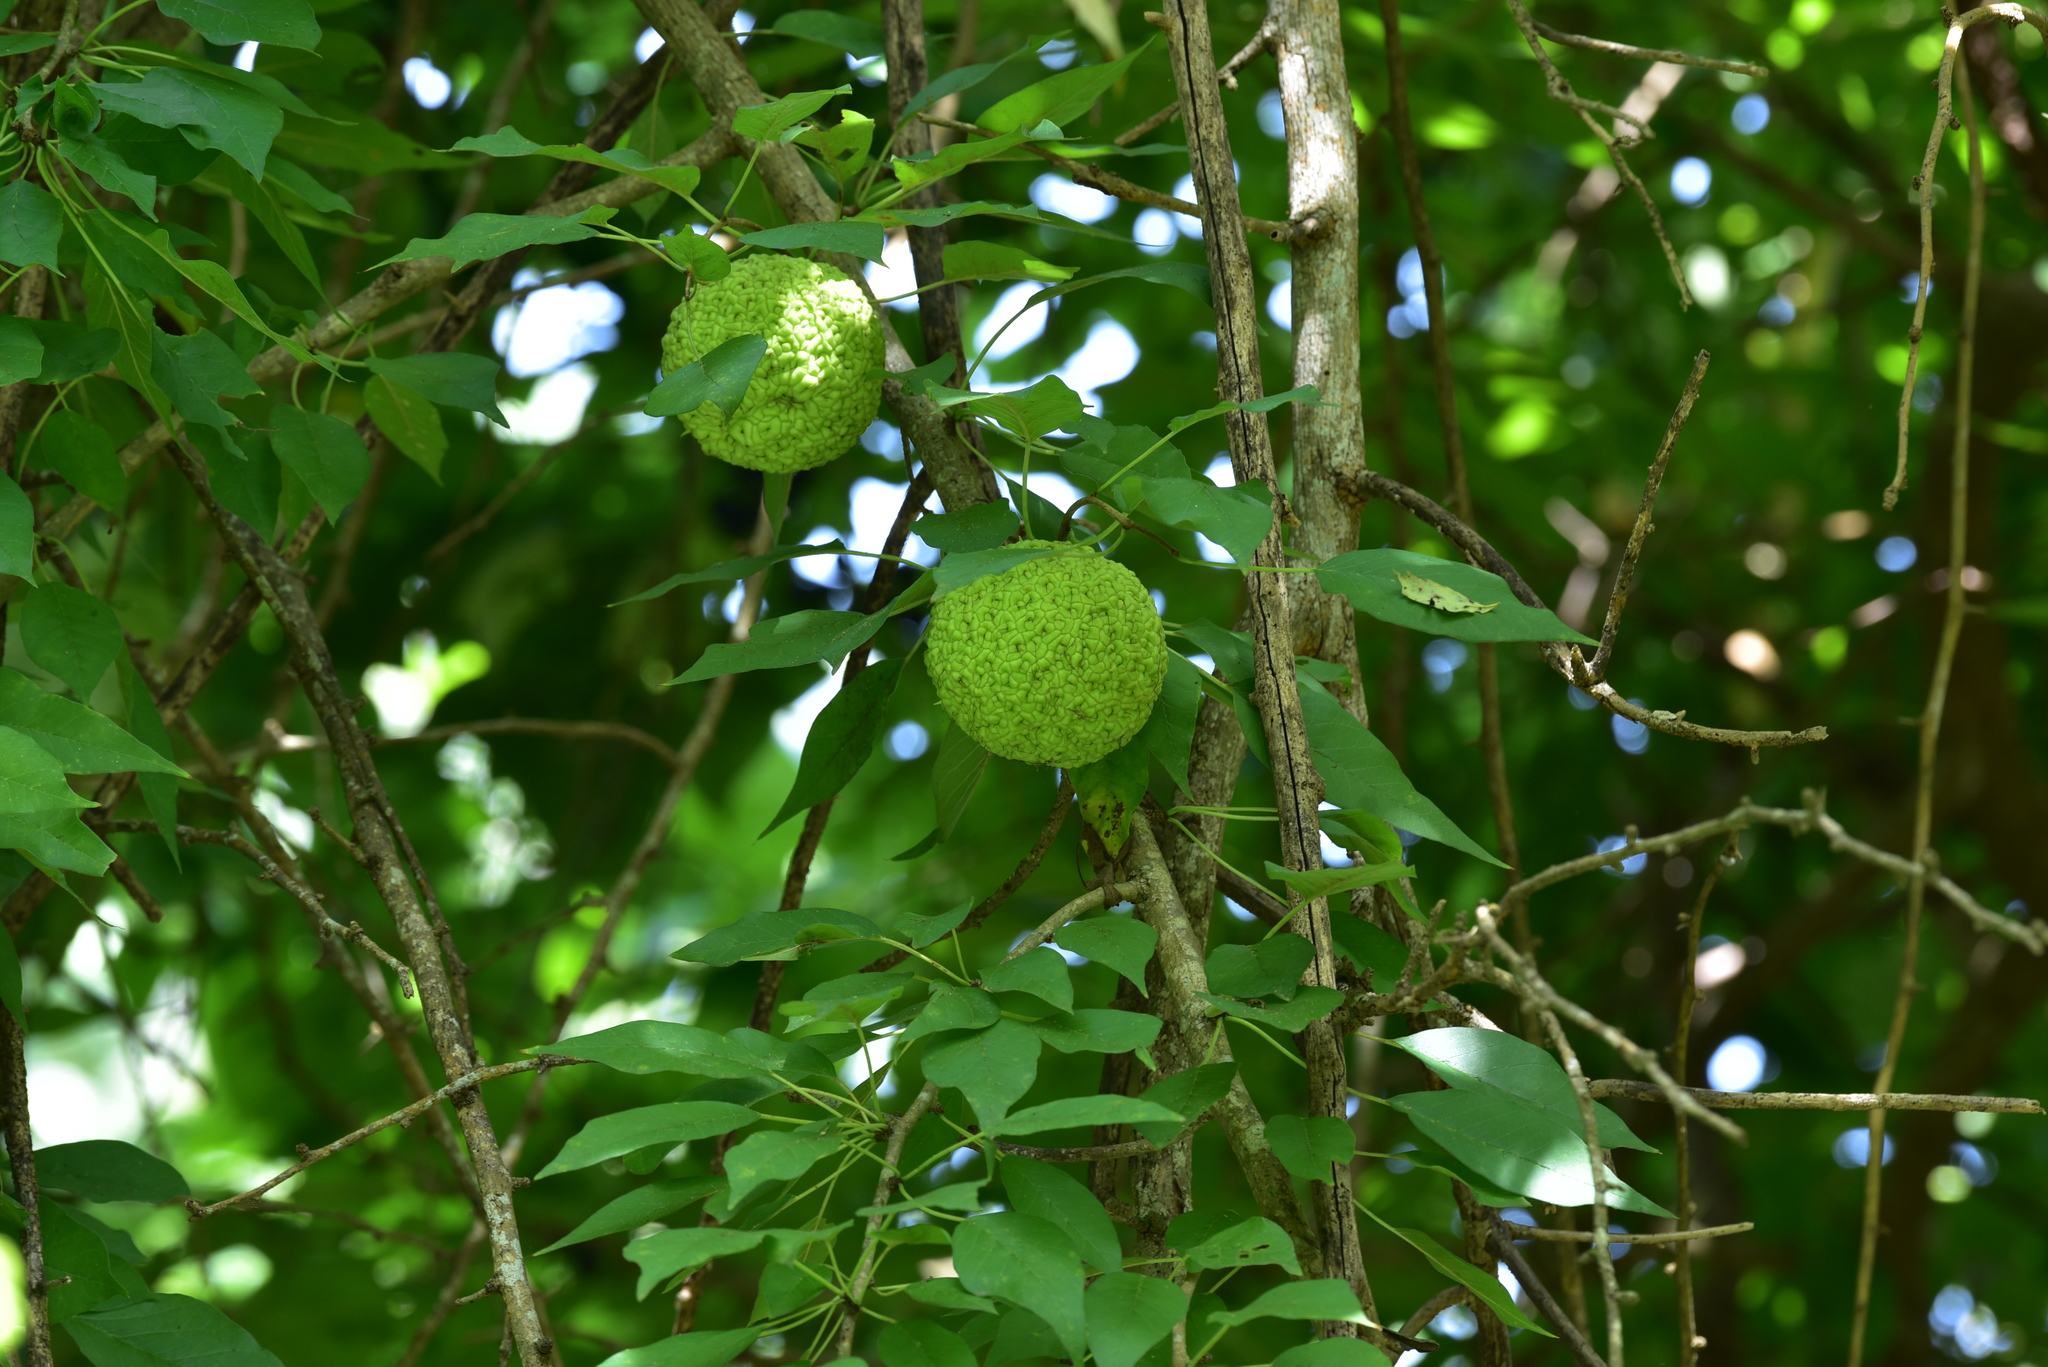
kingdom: Plantae
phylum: Tracheophyta
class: Magnoliopsida
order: Rosales
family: Moraceae
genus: Maclura
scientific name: Maclura pomifera
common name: Osage-orange
